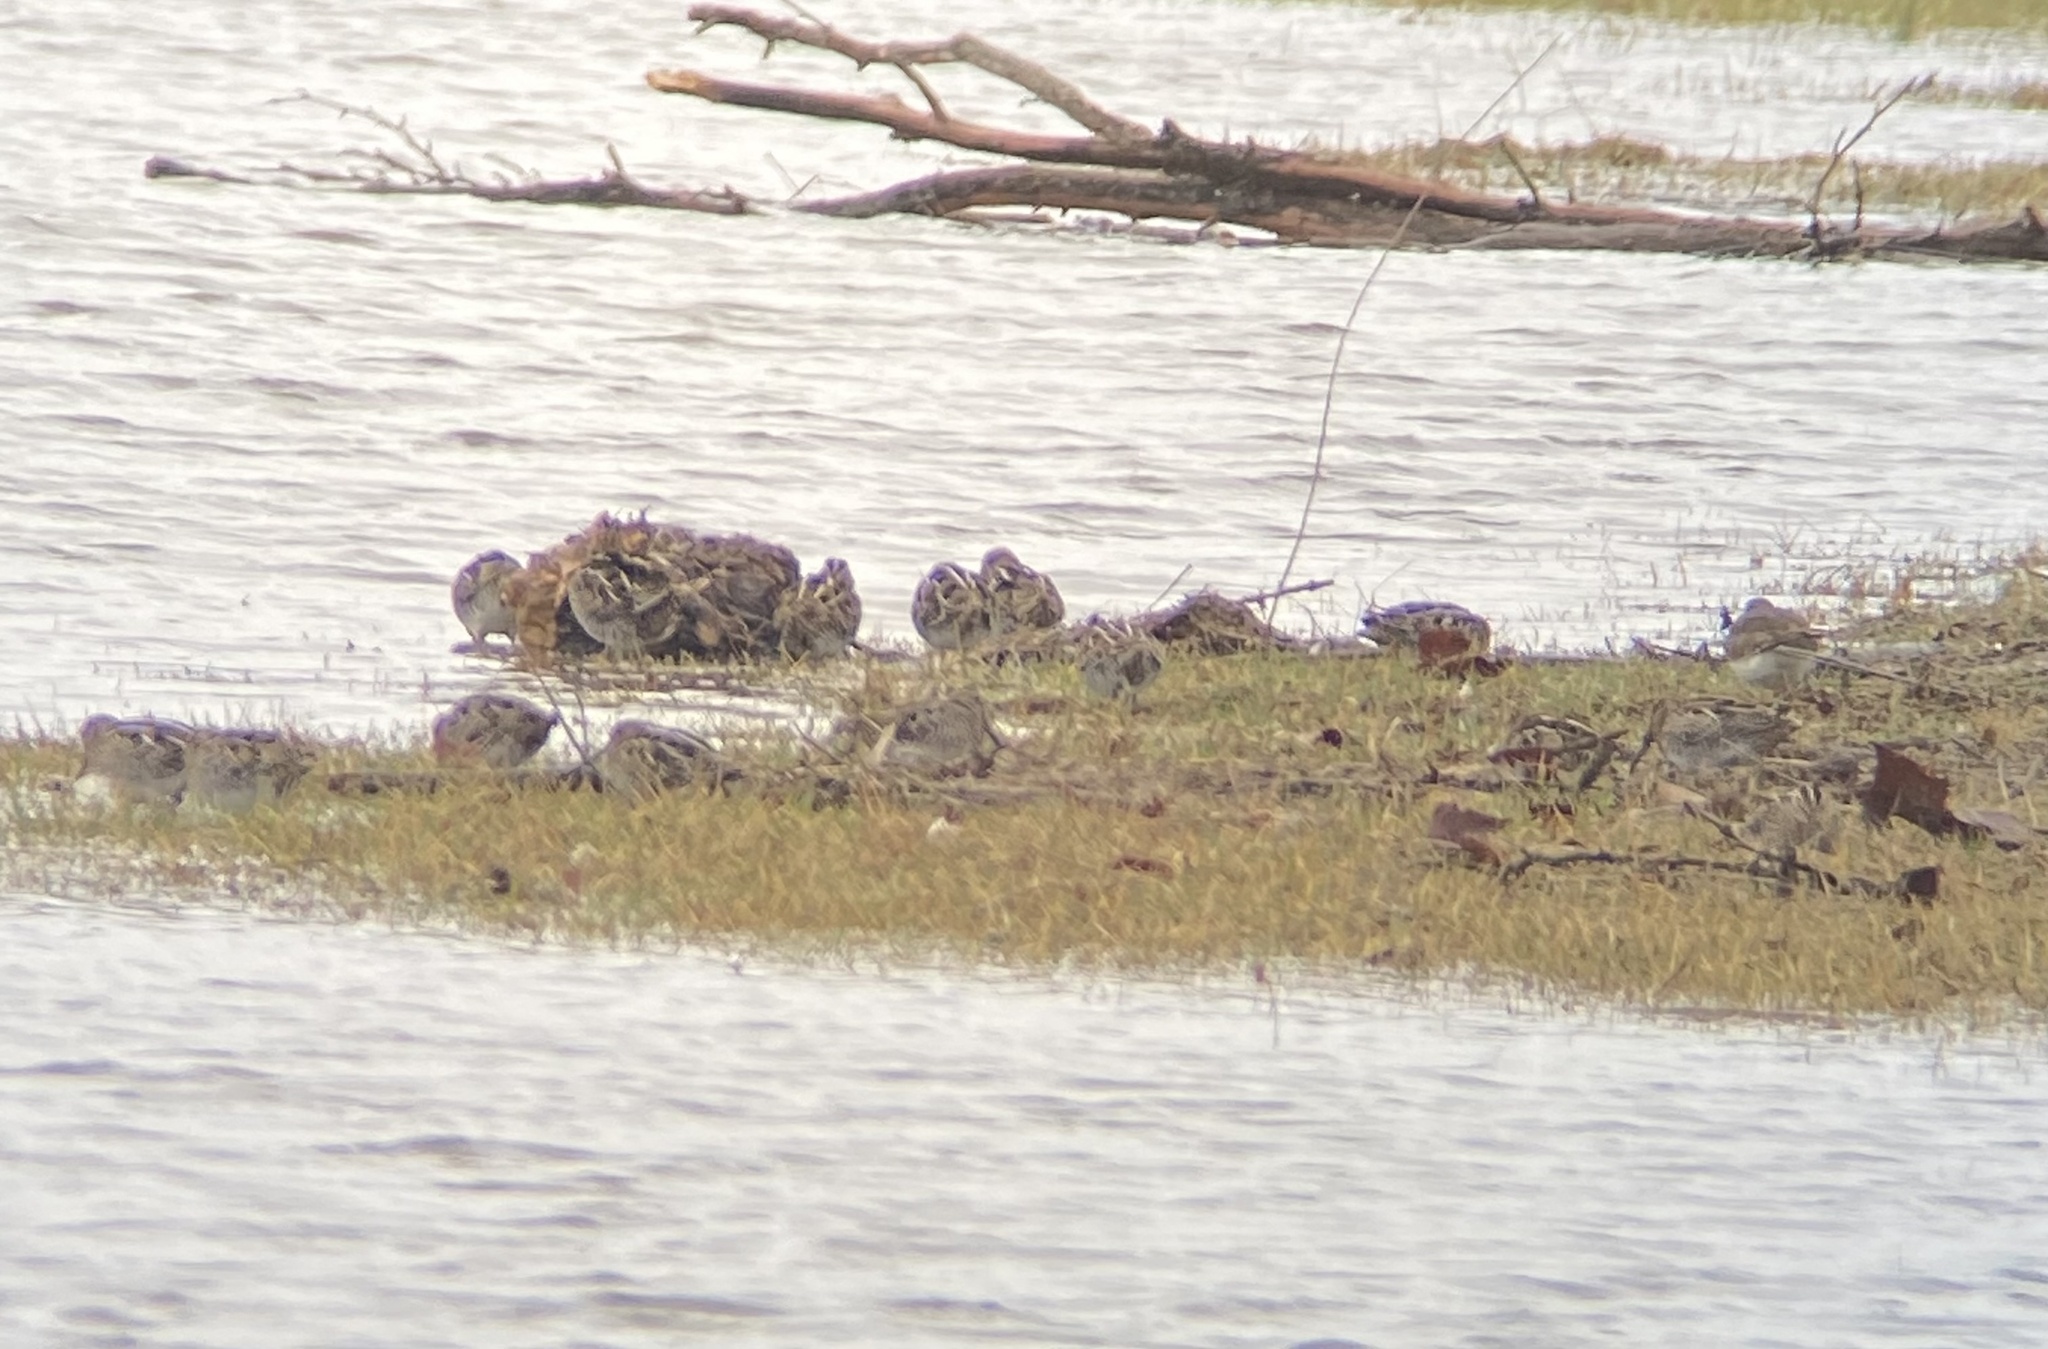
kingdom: Animalia
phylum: Chordata
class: Aves
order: Charadriiformes
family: Scolopacidae
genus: Gallinago
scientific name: Gallinago delicata
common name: Wilson's snipe
